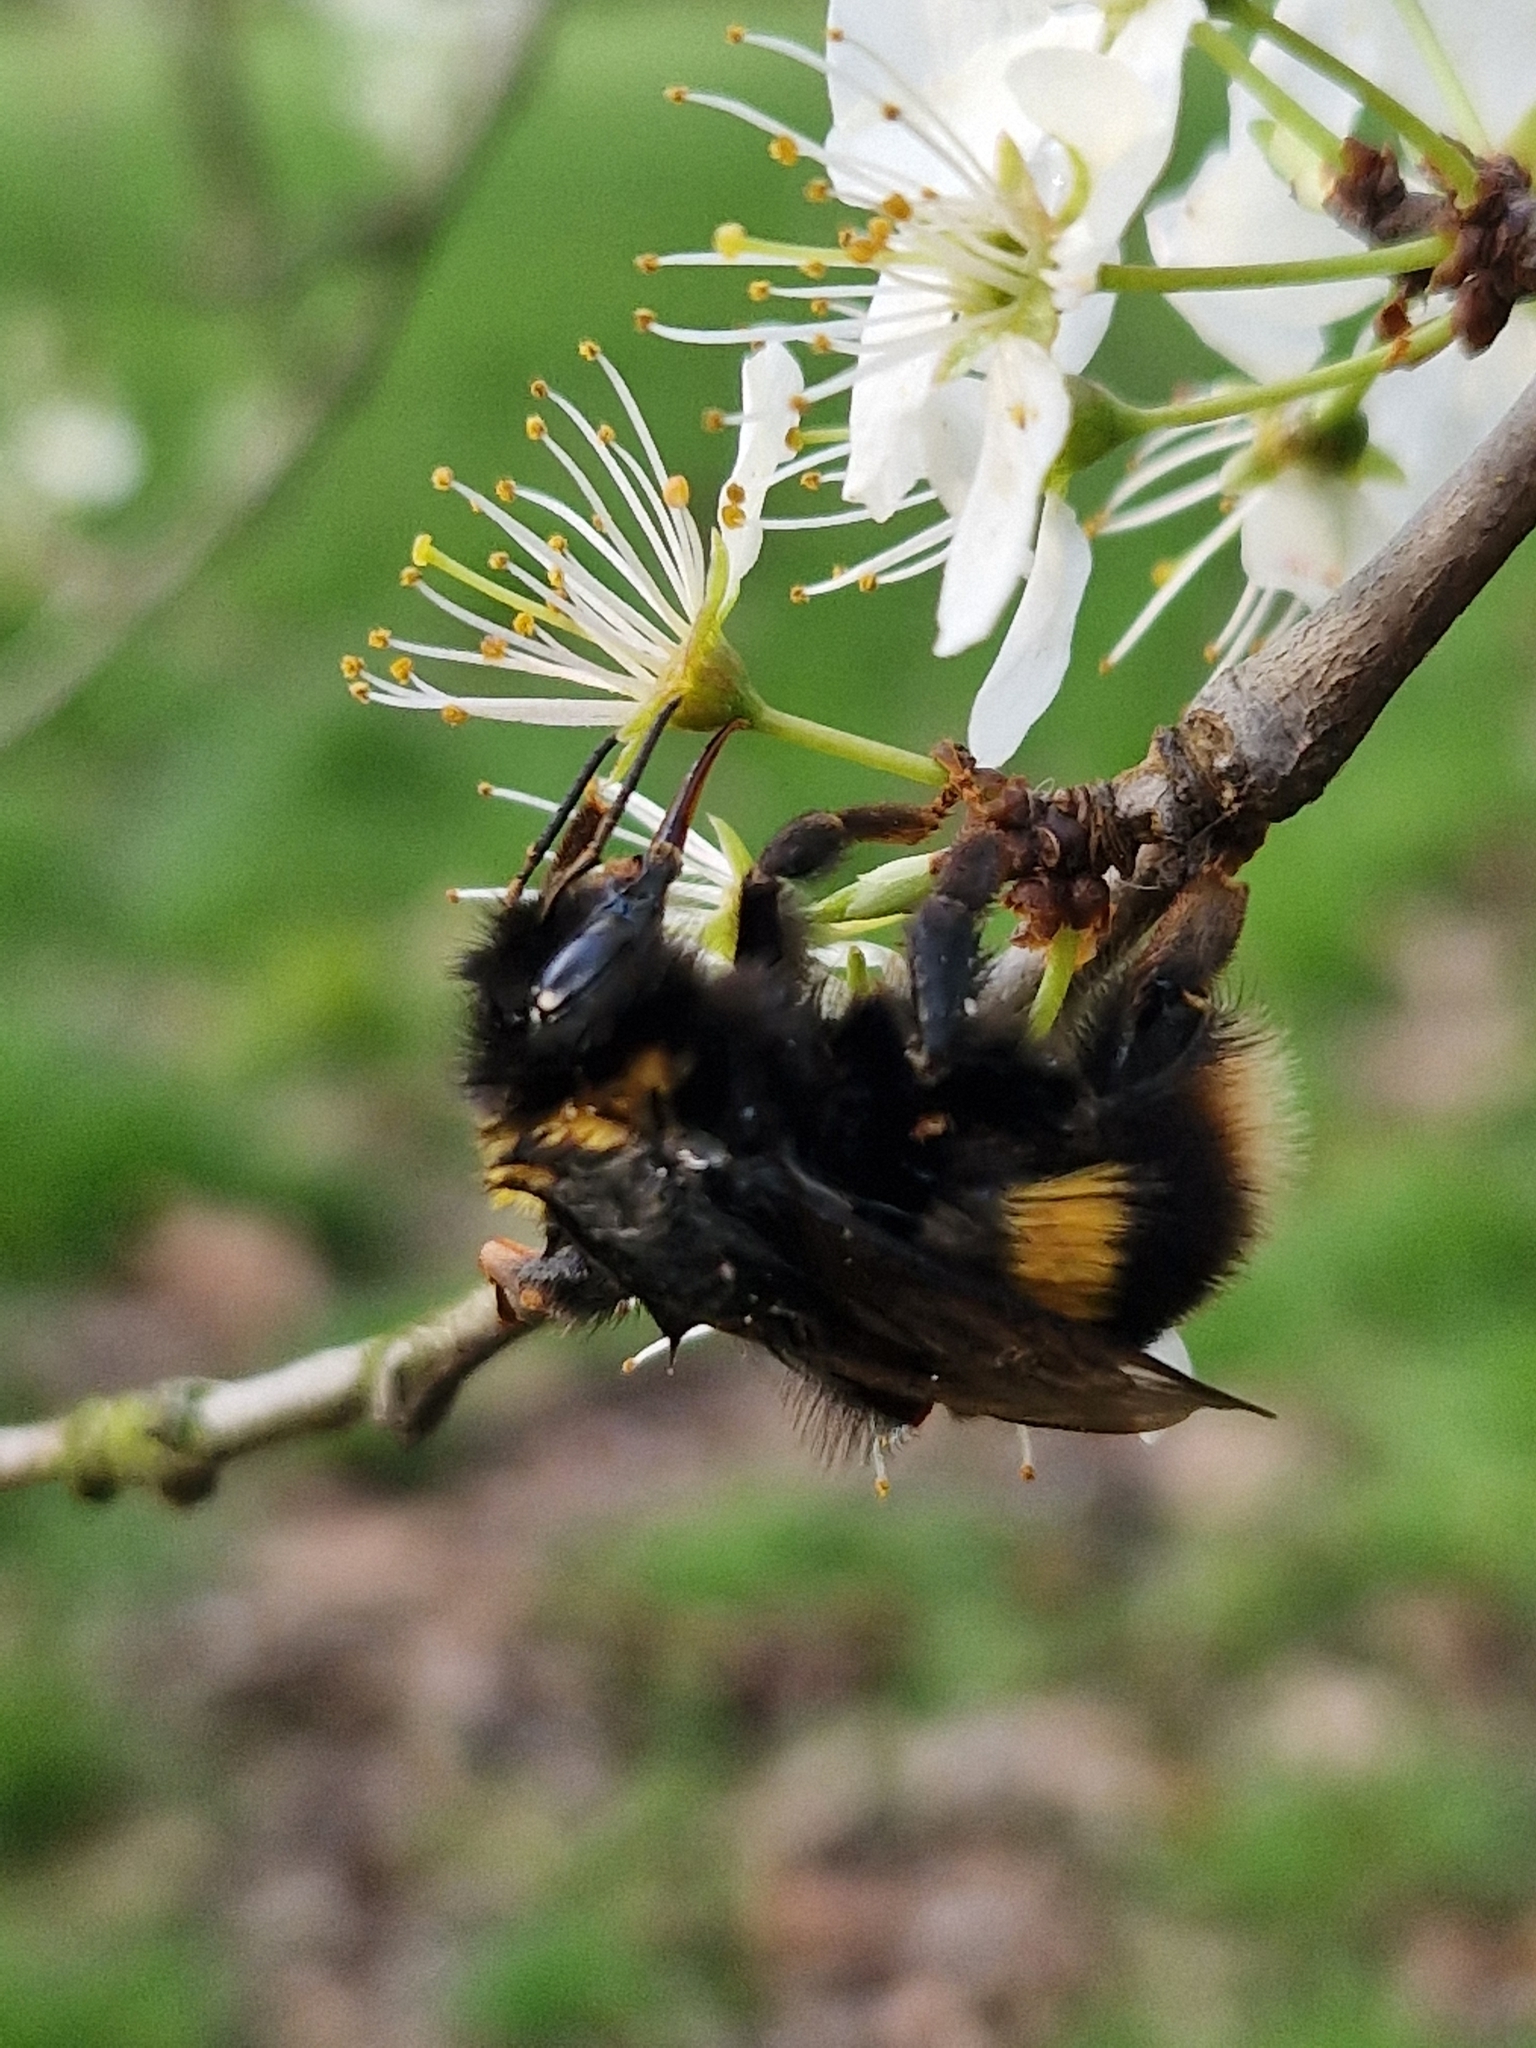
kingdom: Animalia
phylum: Arthropoda
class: Insecta
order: Hymenoptera
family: Apidae
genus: Bombus
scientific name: Bombus terrestris
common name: Buff-tailed bumblebee
